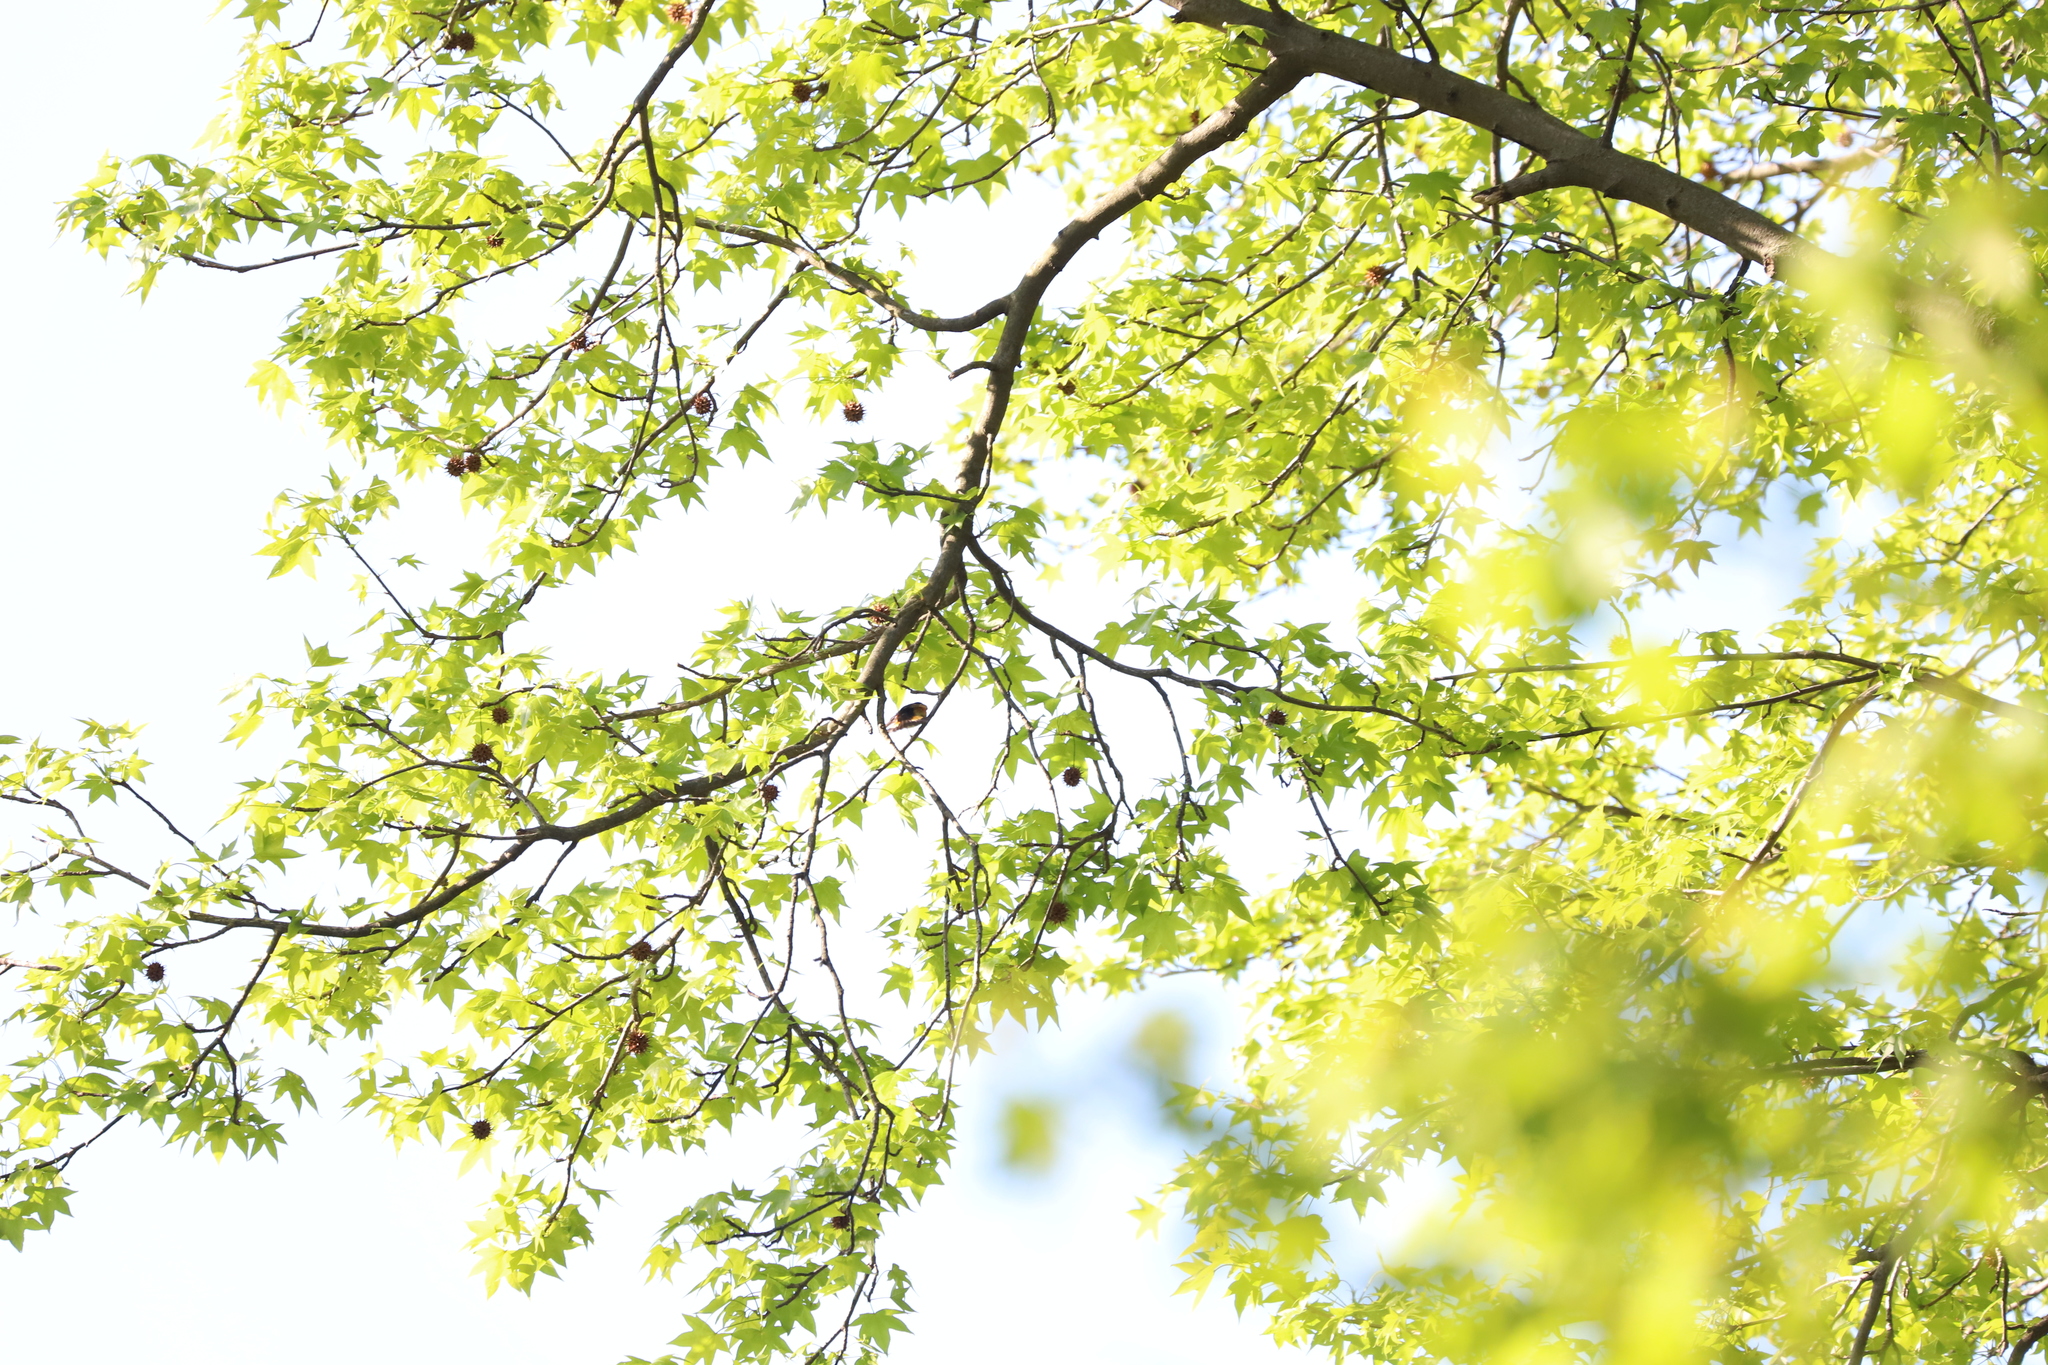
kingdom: Plantae
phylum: Tracheophyta
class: Magnoliopsida
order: Saxifragales
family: Altingiaceae
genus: Liquidambar
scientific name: Liquidambar styraciflua
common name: Sweet gum
